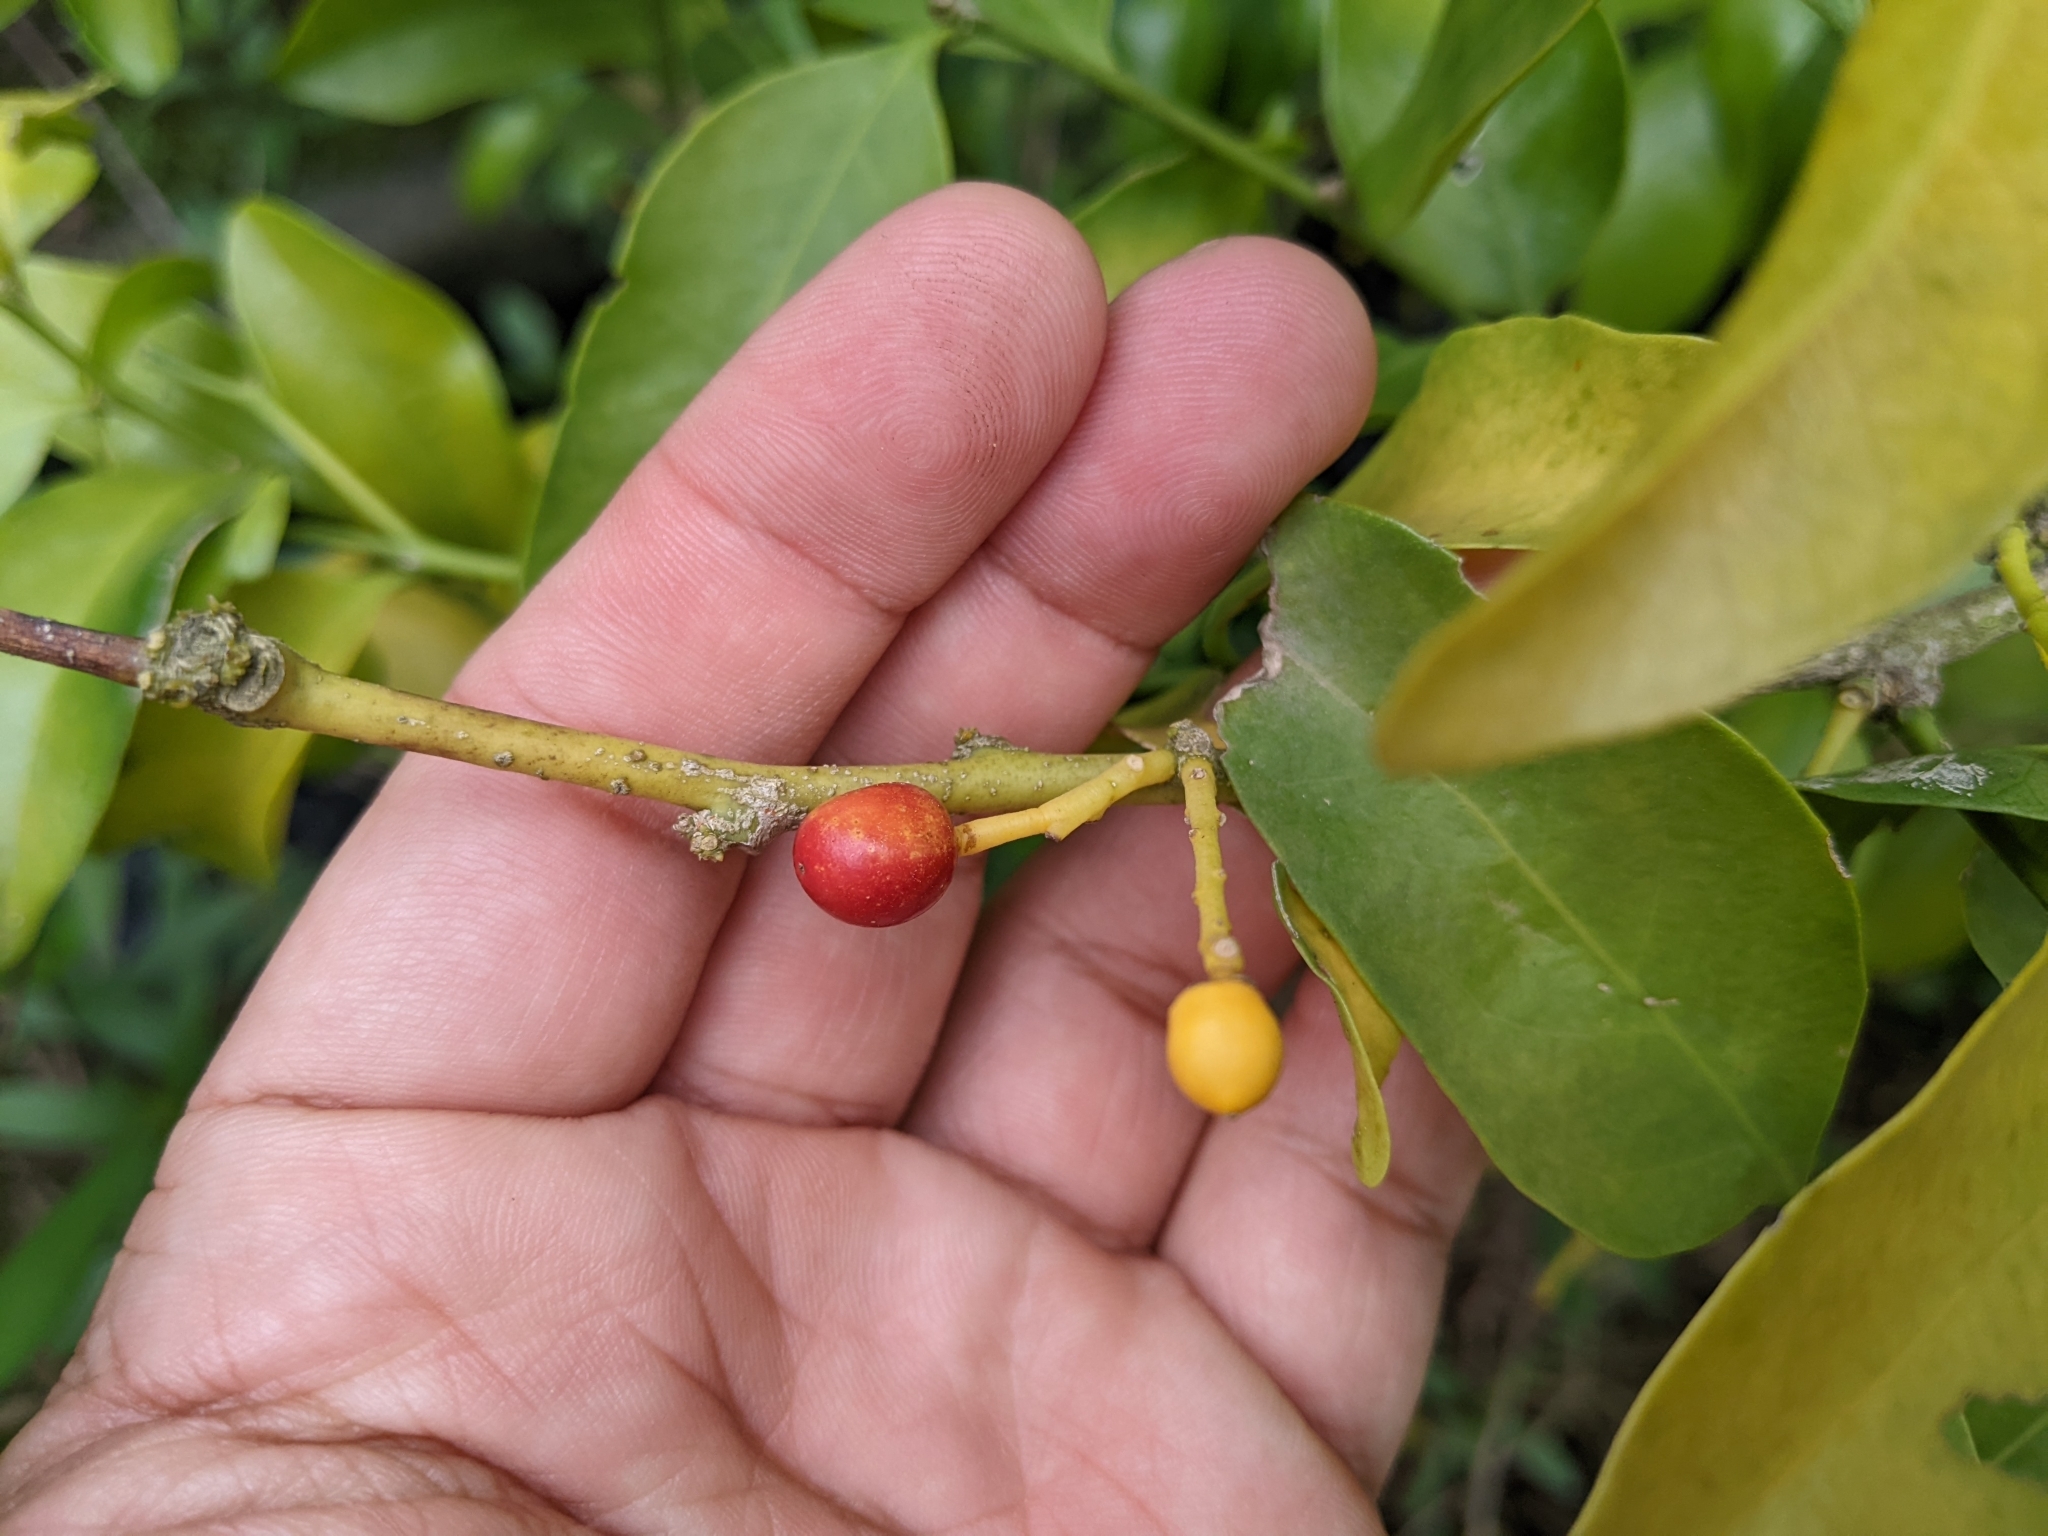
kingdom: Plantae
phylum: Tracheophyta
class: Magnoliopsida
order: Santalales
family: Opiliaceae
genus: Champereia
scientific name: Champereia manillana
